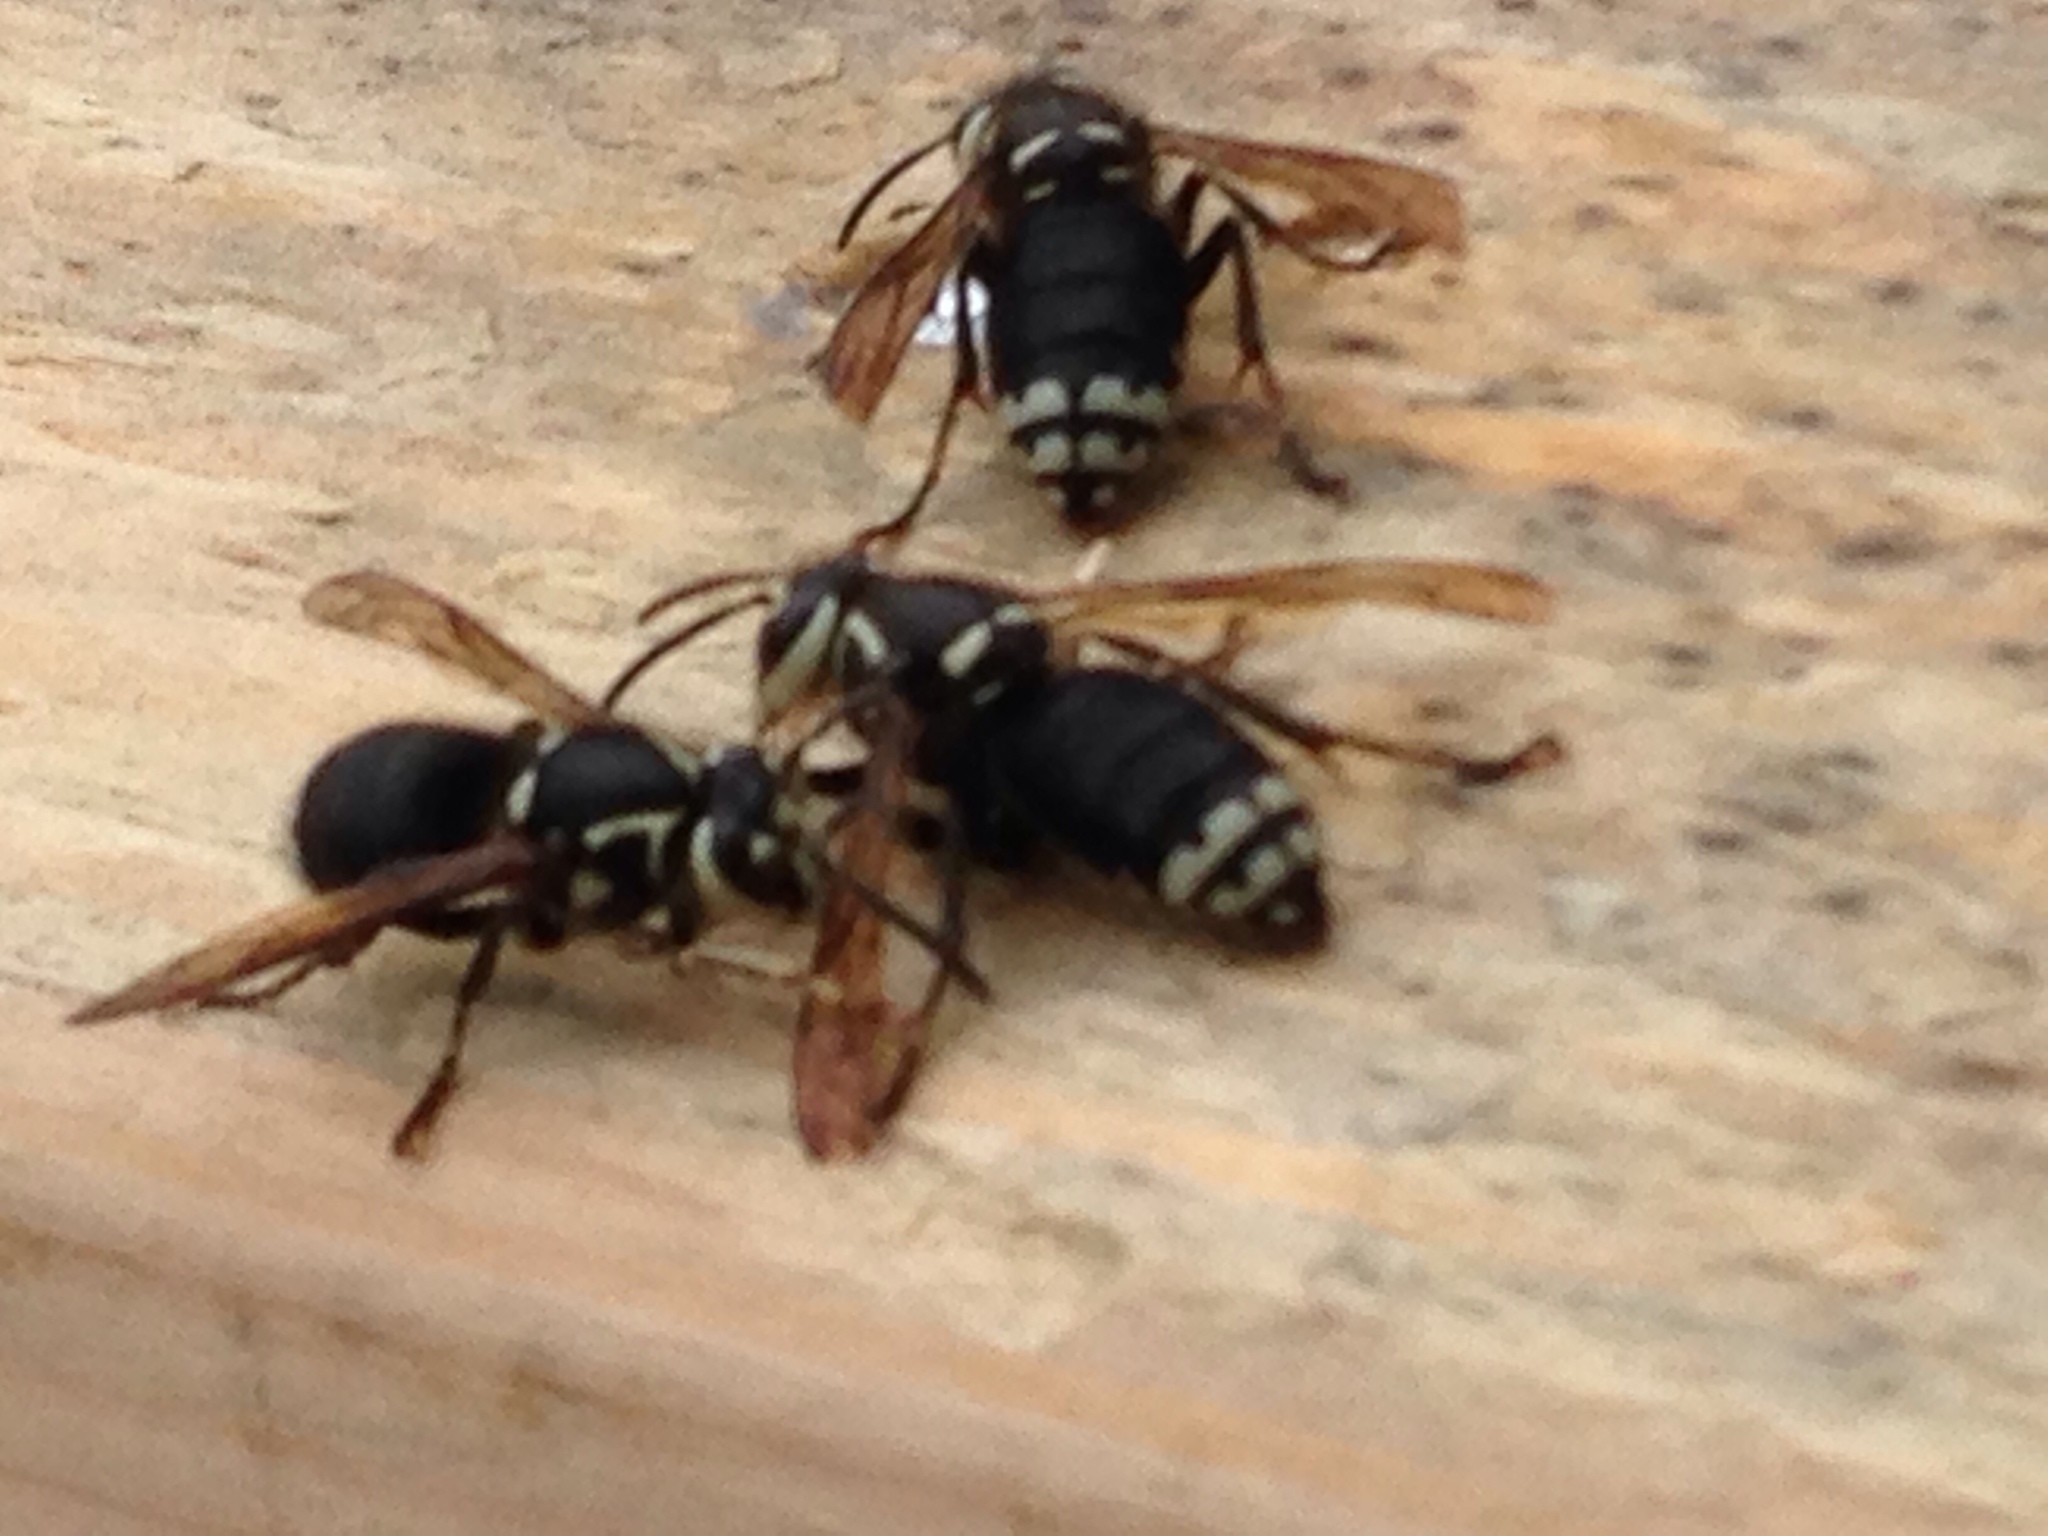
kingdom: Animalia
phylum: Arthropoda
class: Insecta
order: Hymenoptera
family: Vespidae
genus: Dolichovespula
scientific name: Dolichovespula maculata
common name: Bald-faced hornet
